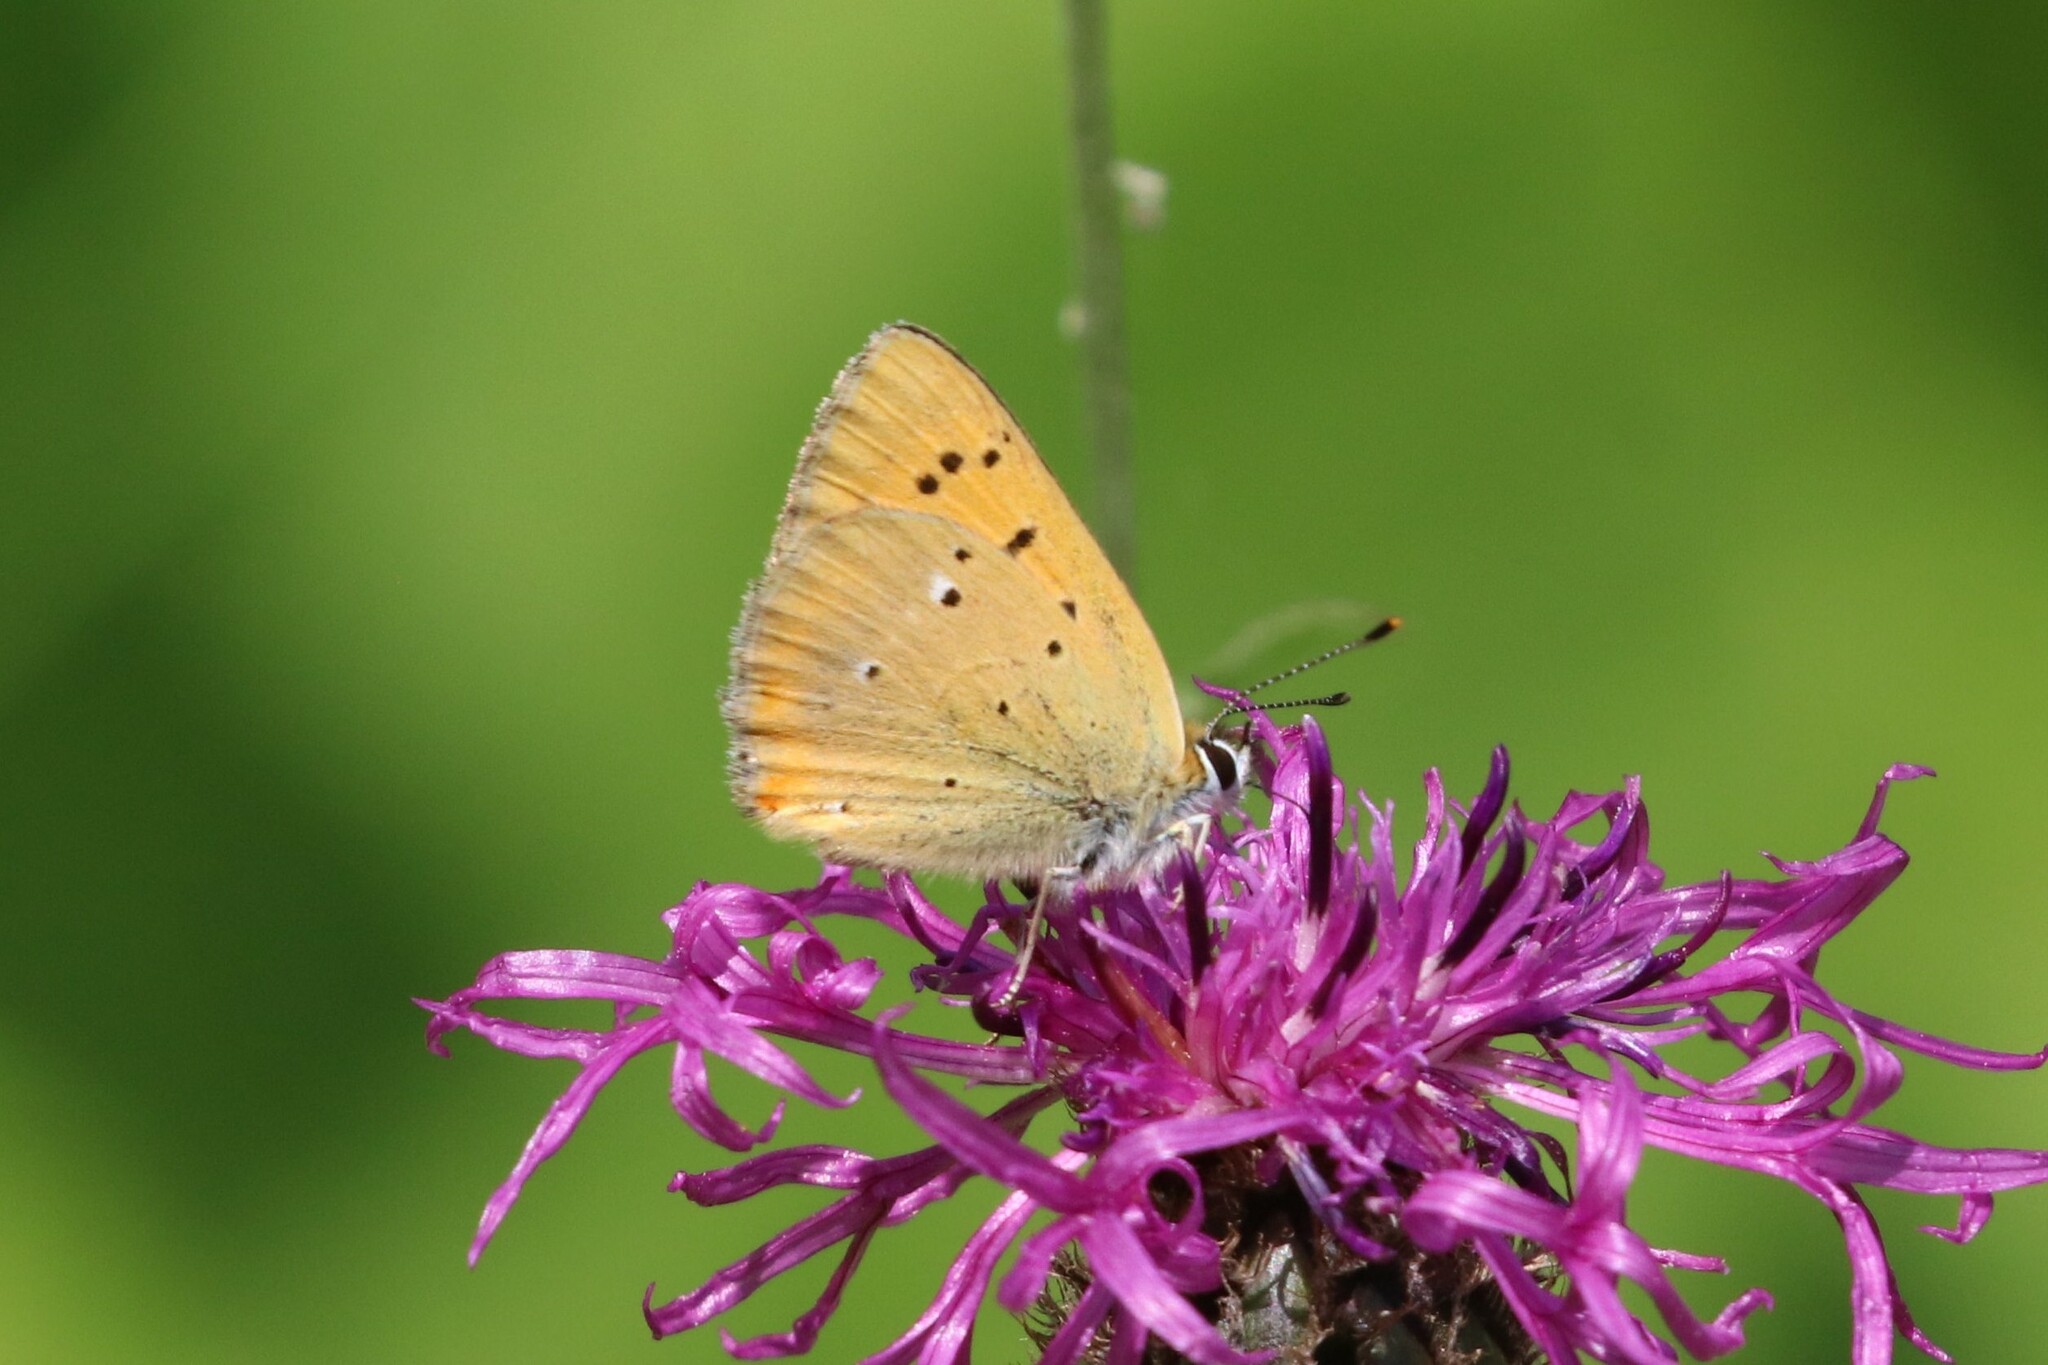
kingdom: Animalia
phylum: Arthropoda
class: Insecta
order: Lepidoptera
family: Lycaenidae
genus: Lycaena
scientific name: Lycaena virgaureae
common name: Scarce copper
